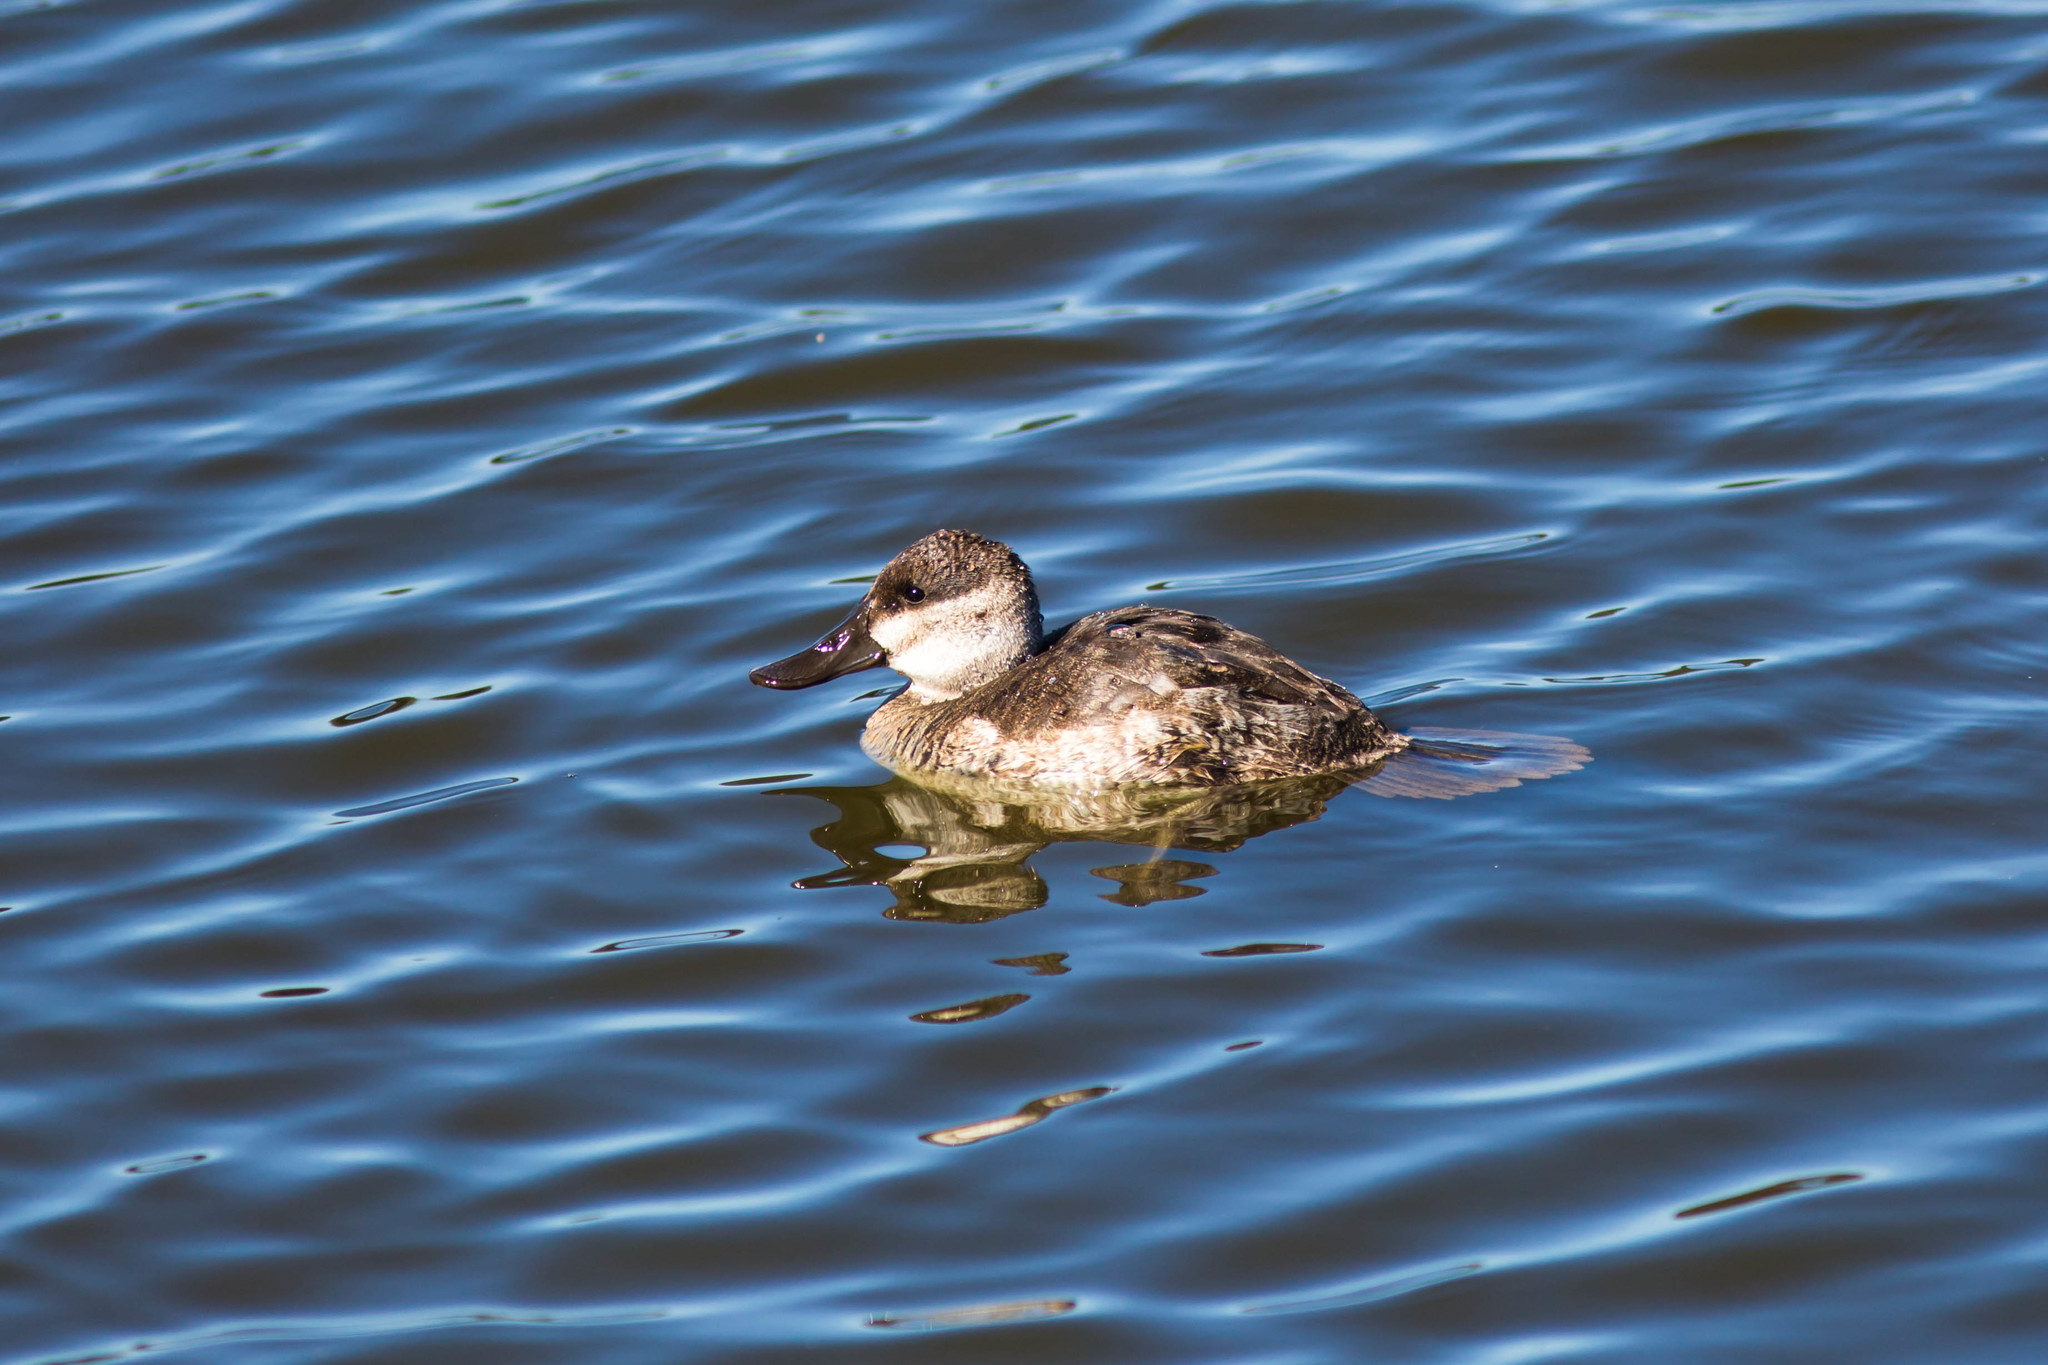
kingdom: Animalia
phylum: Chordata
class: Aves
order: Anseriformes
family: Anatidae
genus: Oxyura
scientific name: Oxyura jamaicensis
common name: Ruddy duck
